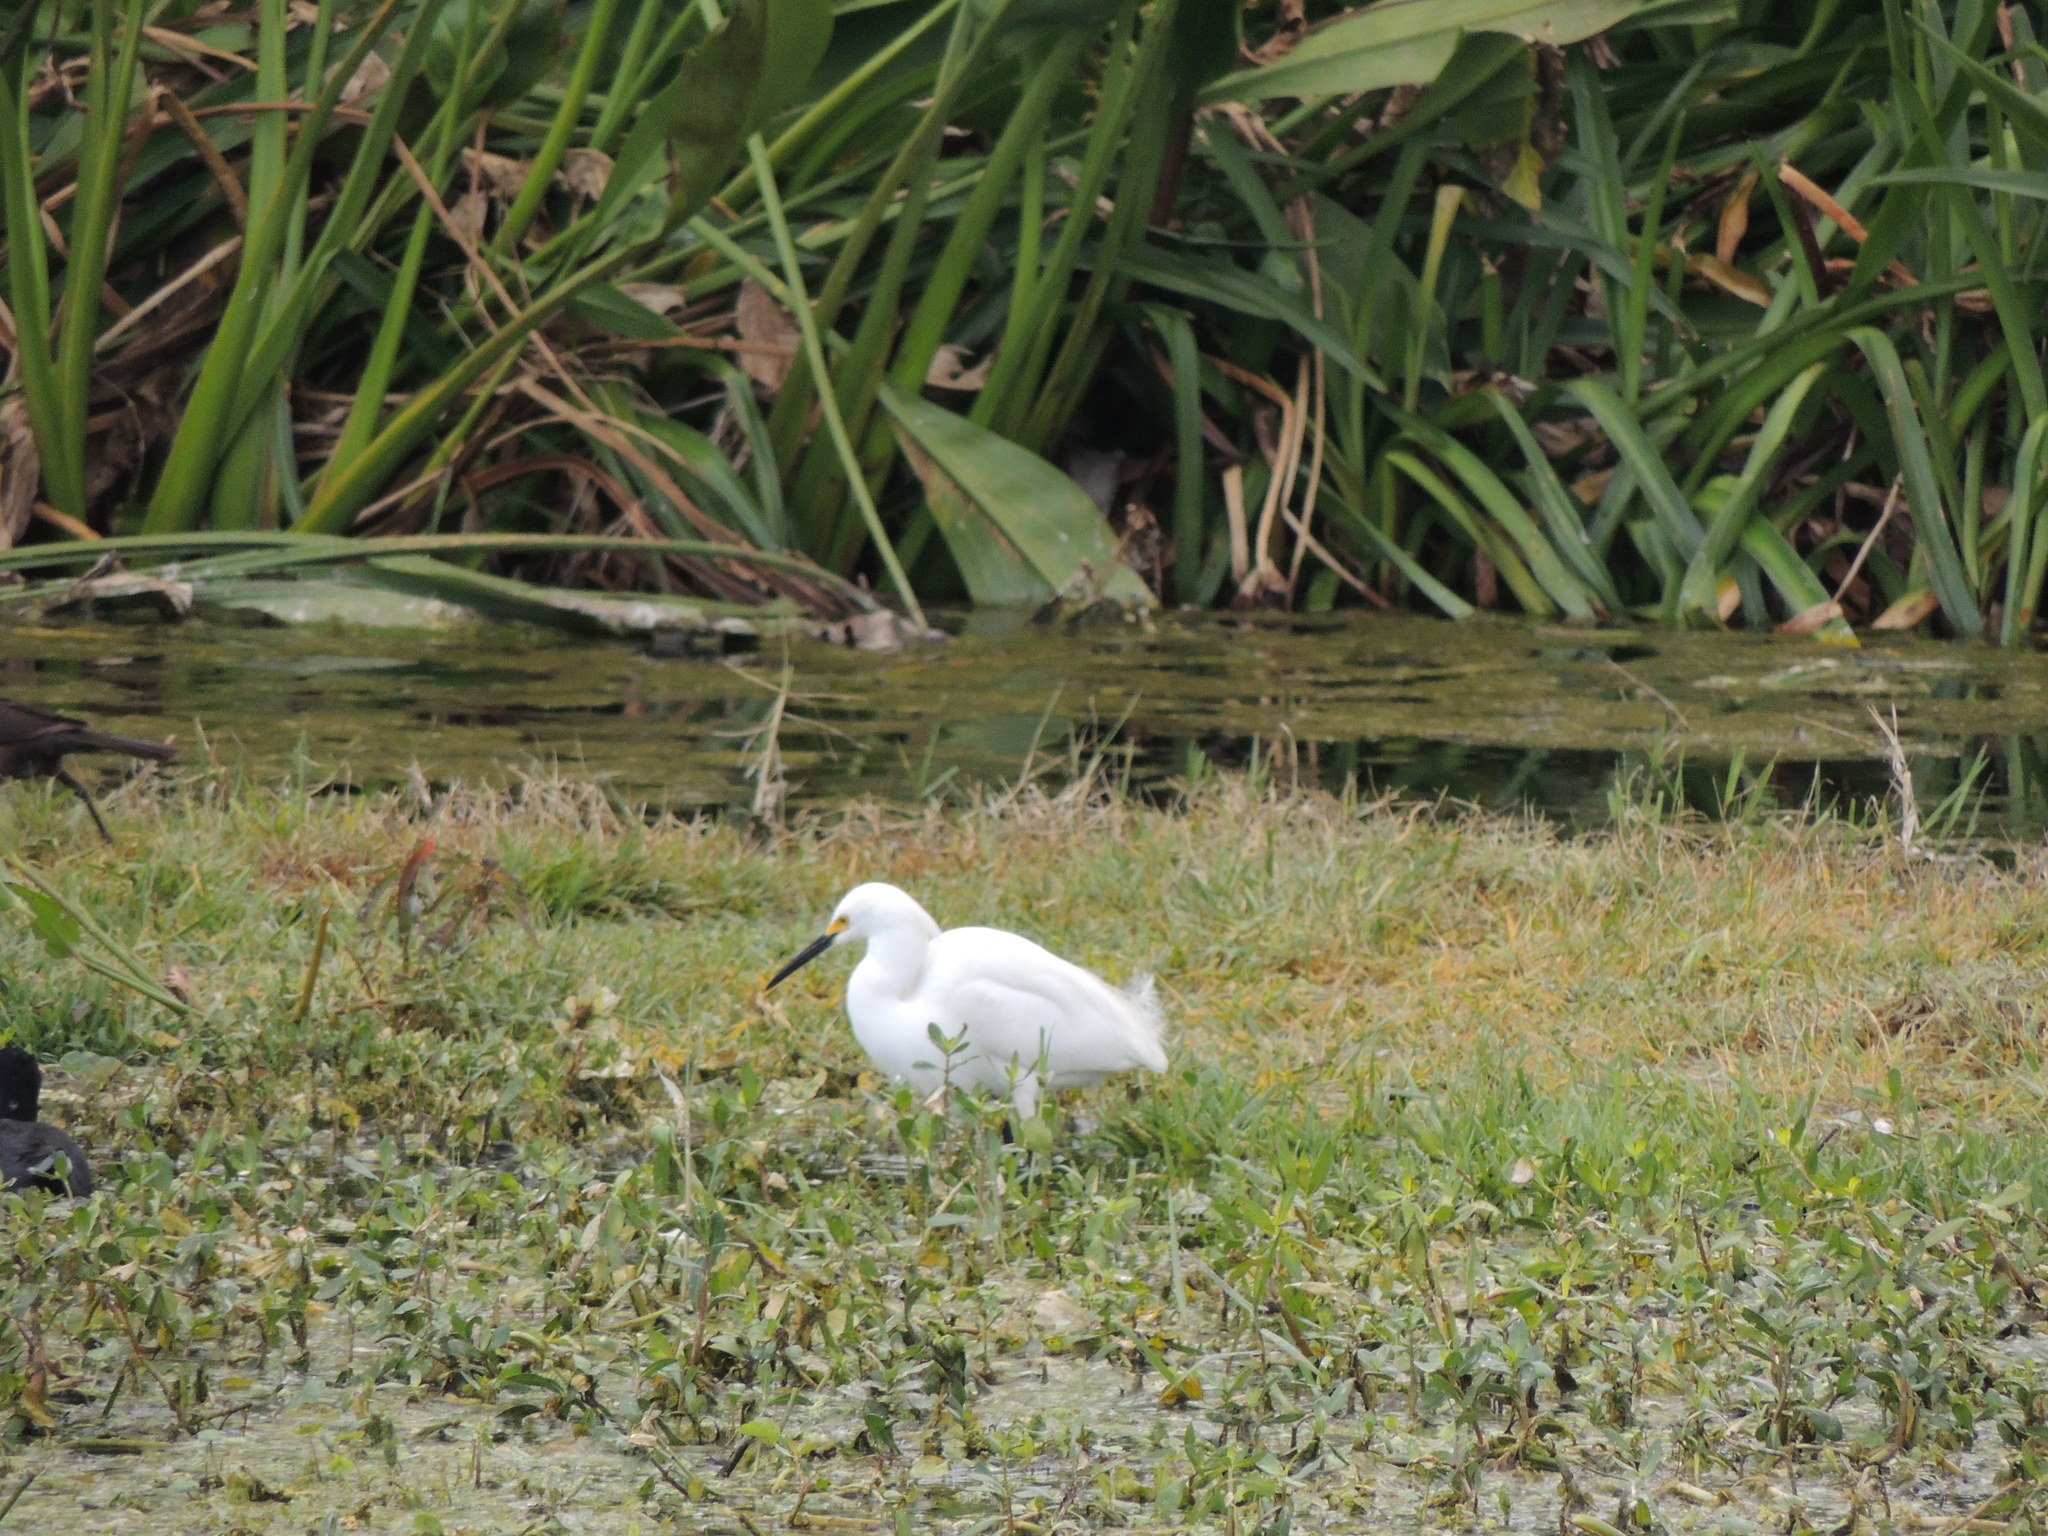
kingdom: Animalia
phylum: Chordata
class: Aves
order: Pelecaniformes
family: Ardeidae
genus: Egretta
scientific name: Egretta thula
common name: Snowy egret
